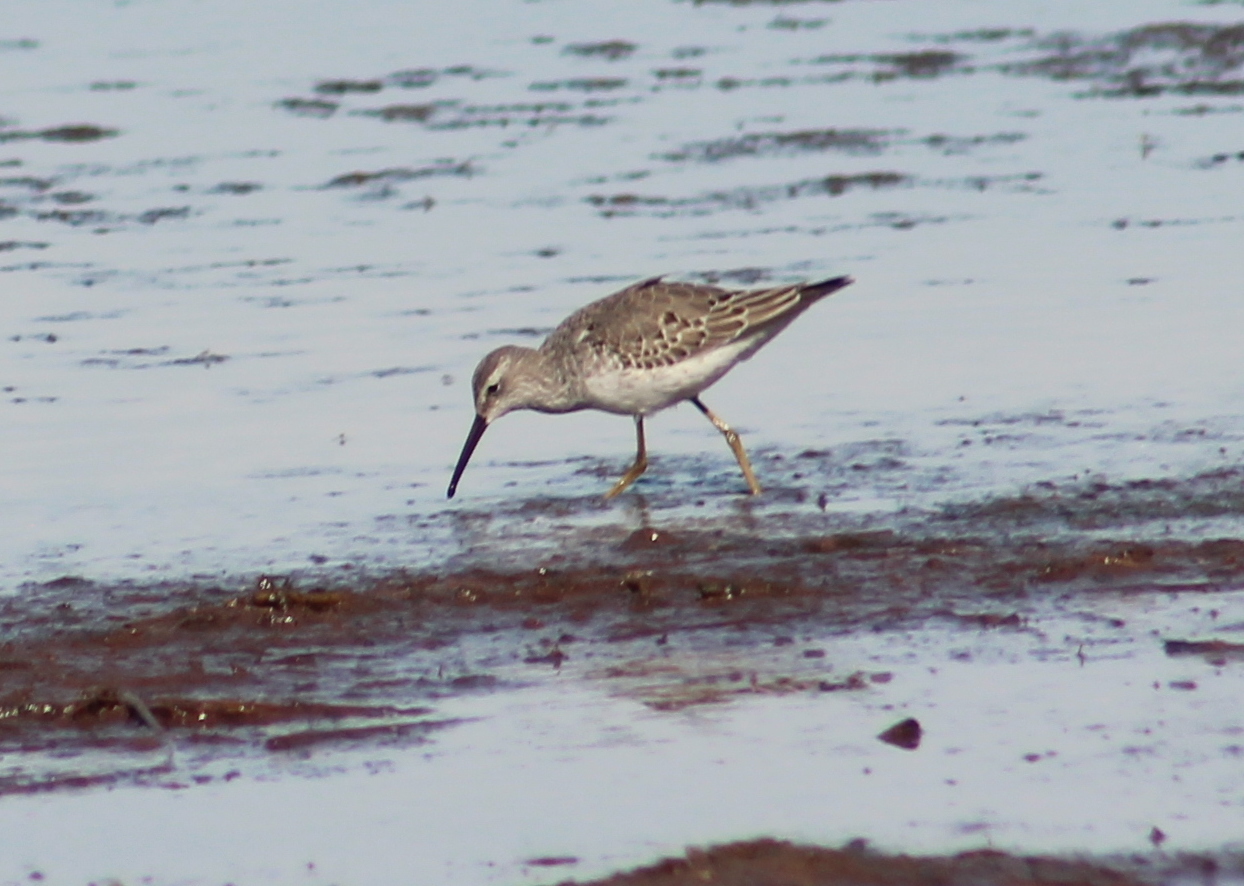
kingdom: Animalia
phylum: Chordata
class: Aves
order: Charadriiformes
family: Scolopacidae
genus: Calidris
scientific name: Calidris himantopus
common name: Stilt sandpiper
